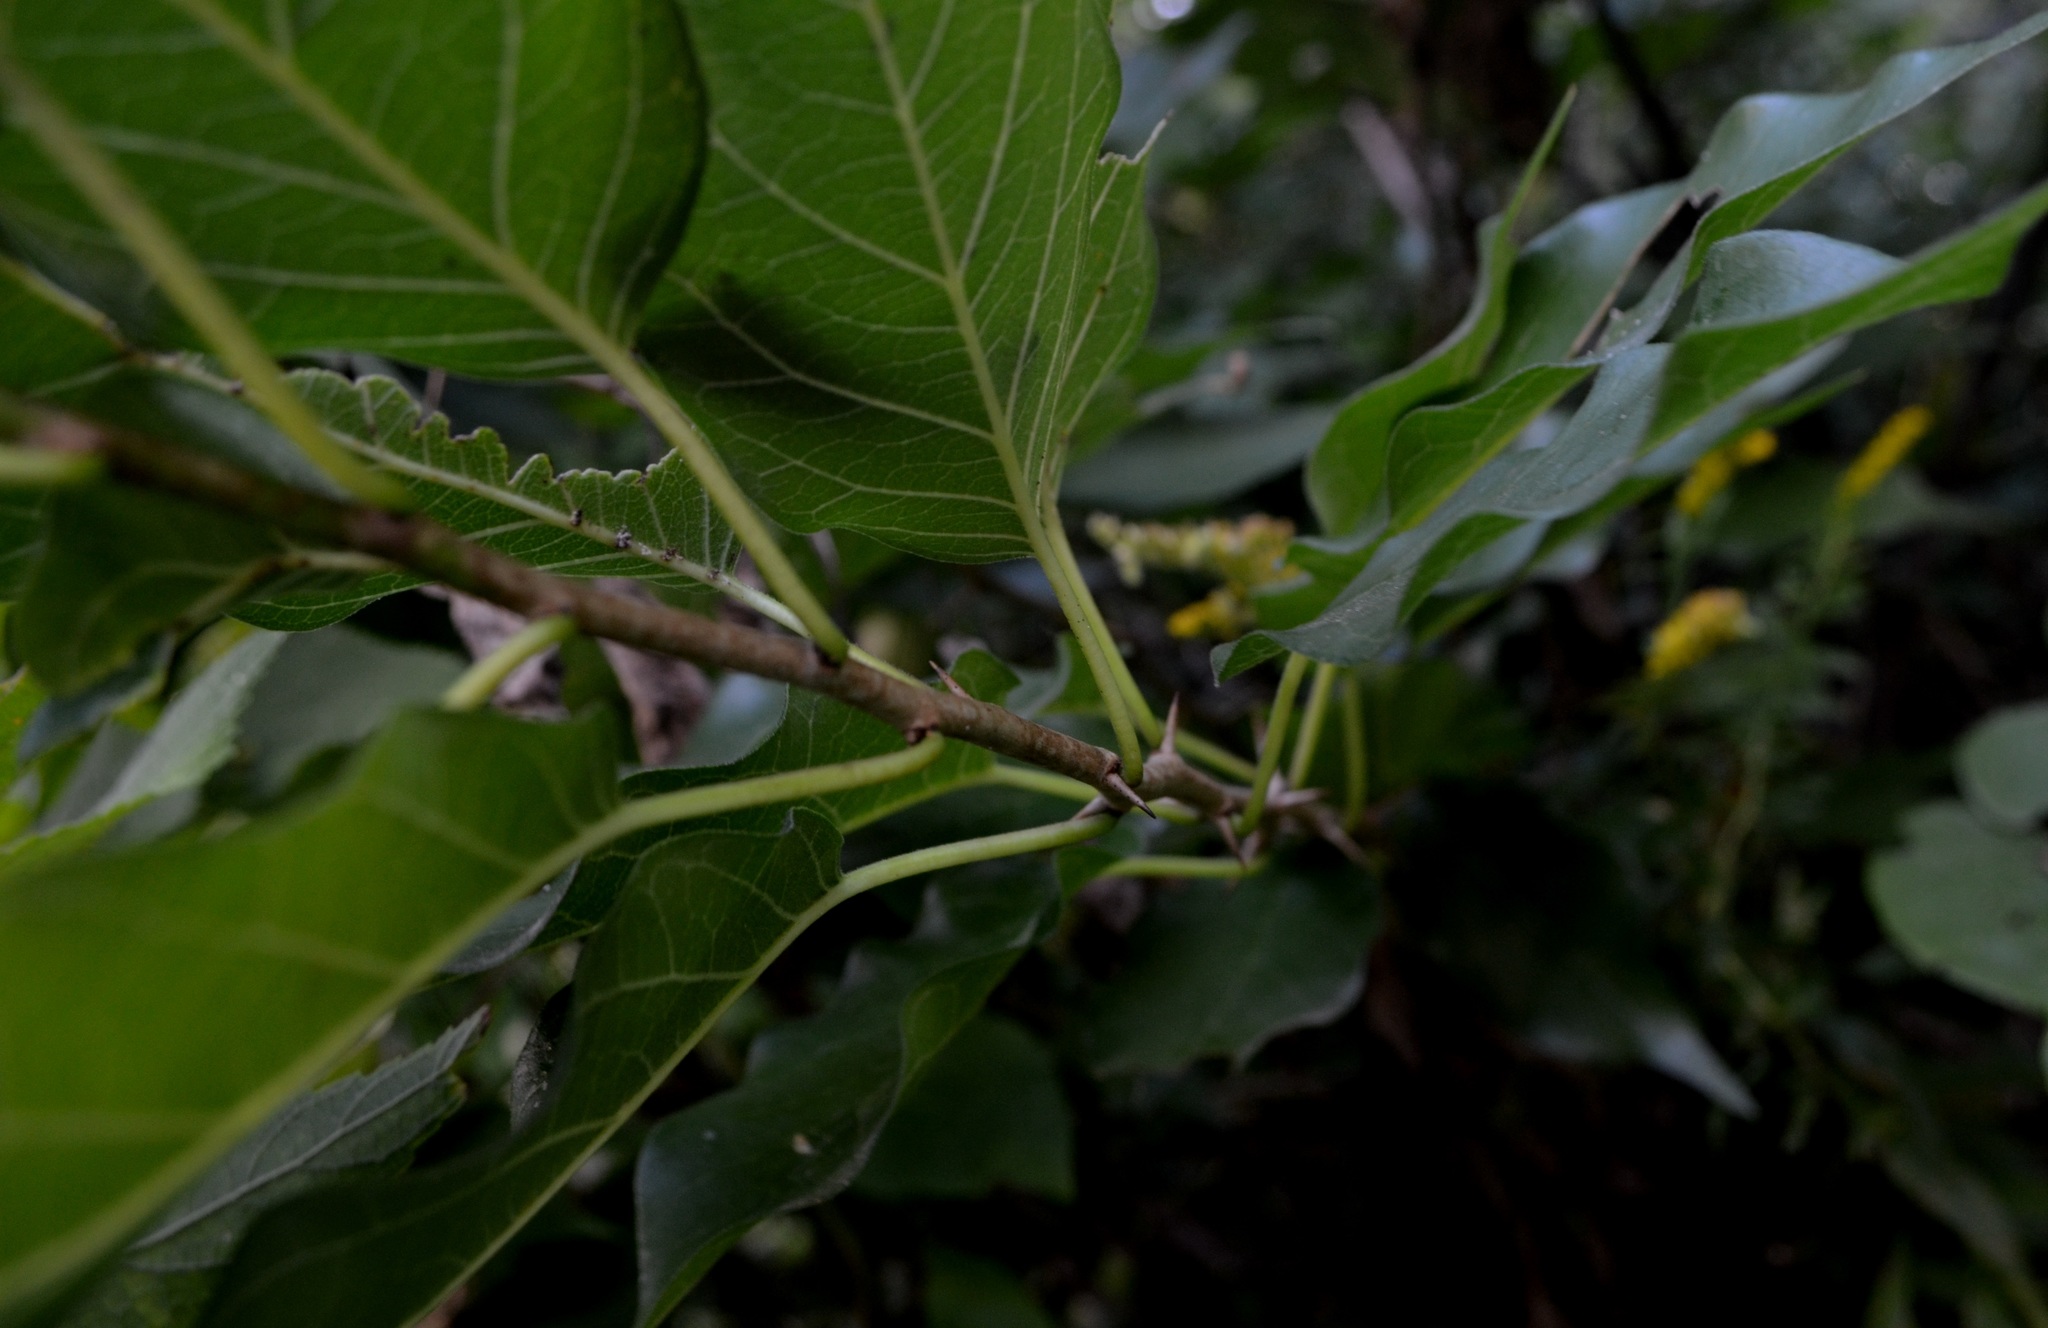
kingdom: Plantae
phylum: Tracheophyta
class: Magnoliopsida
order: Rosales
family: Moraceae
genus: Maclura
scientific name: Maclura pomifera
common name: Osage-orange
